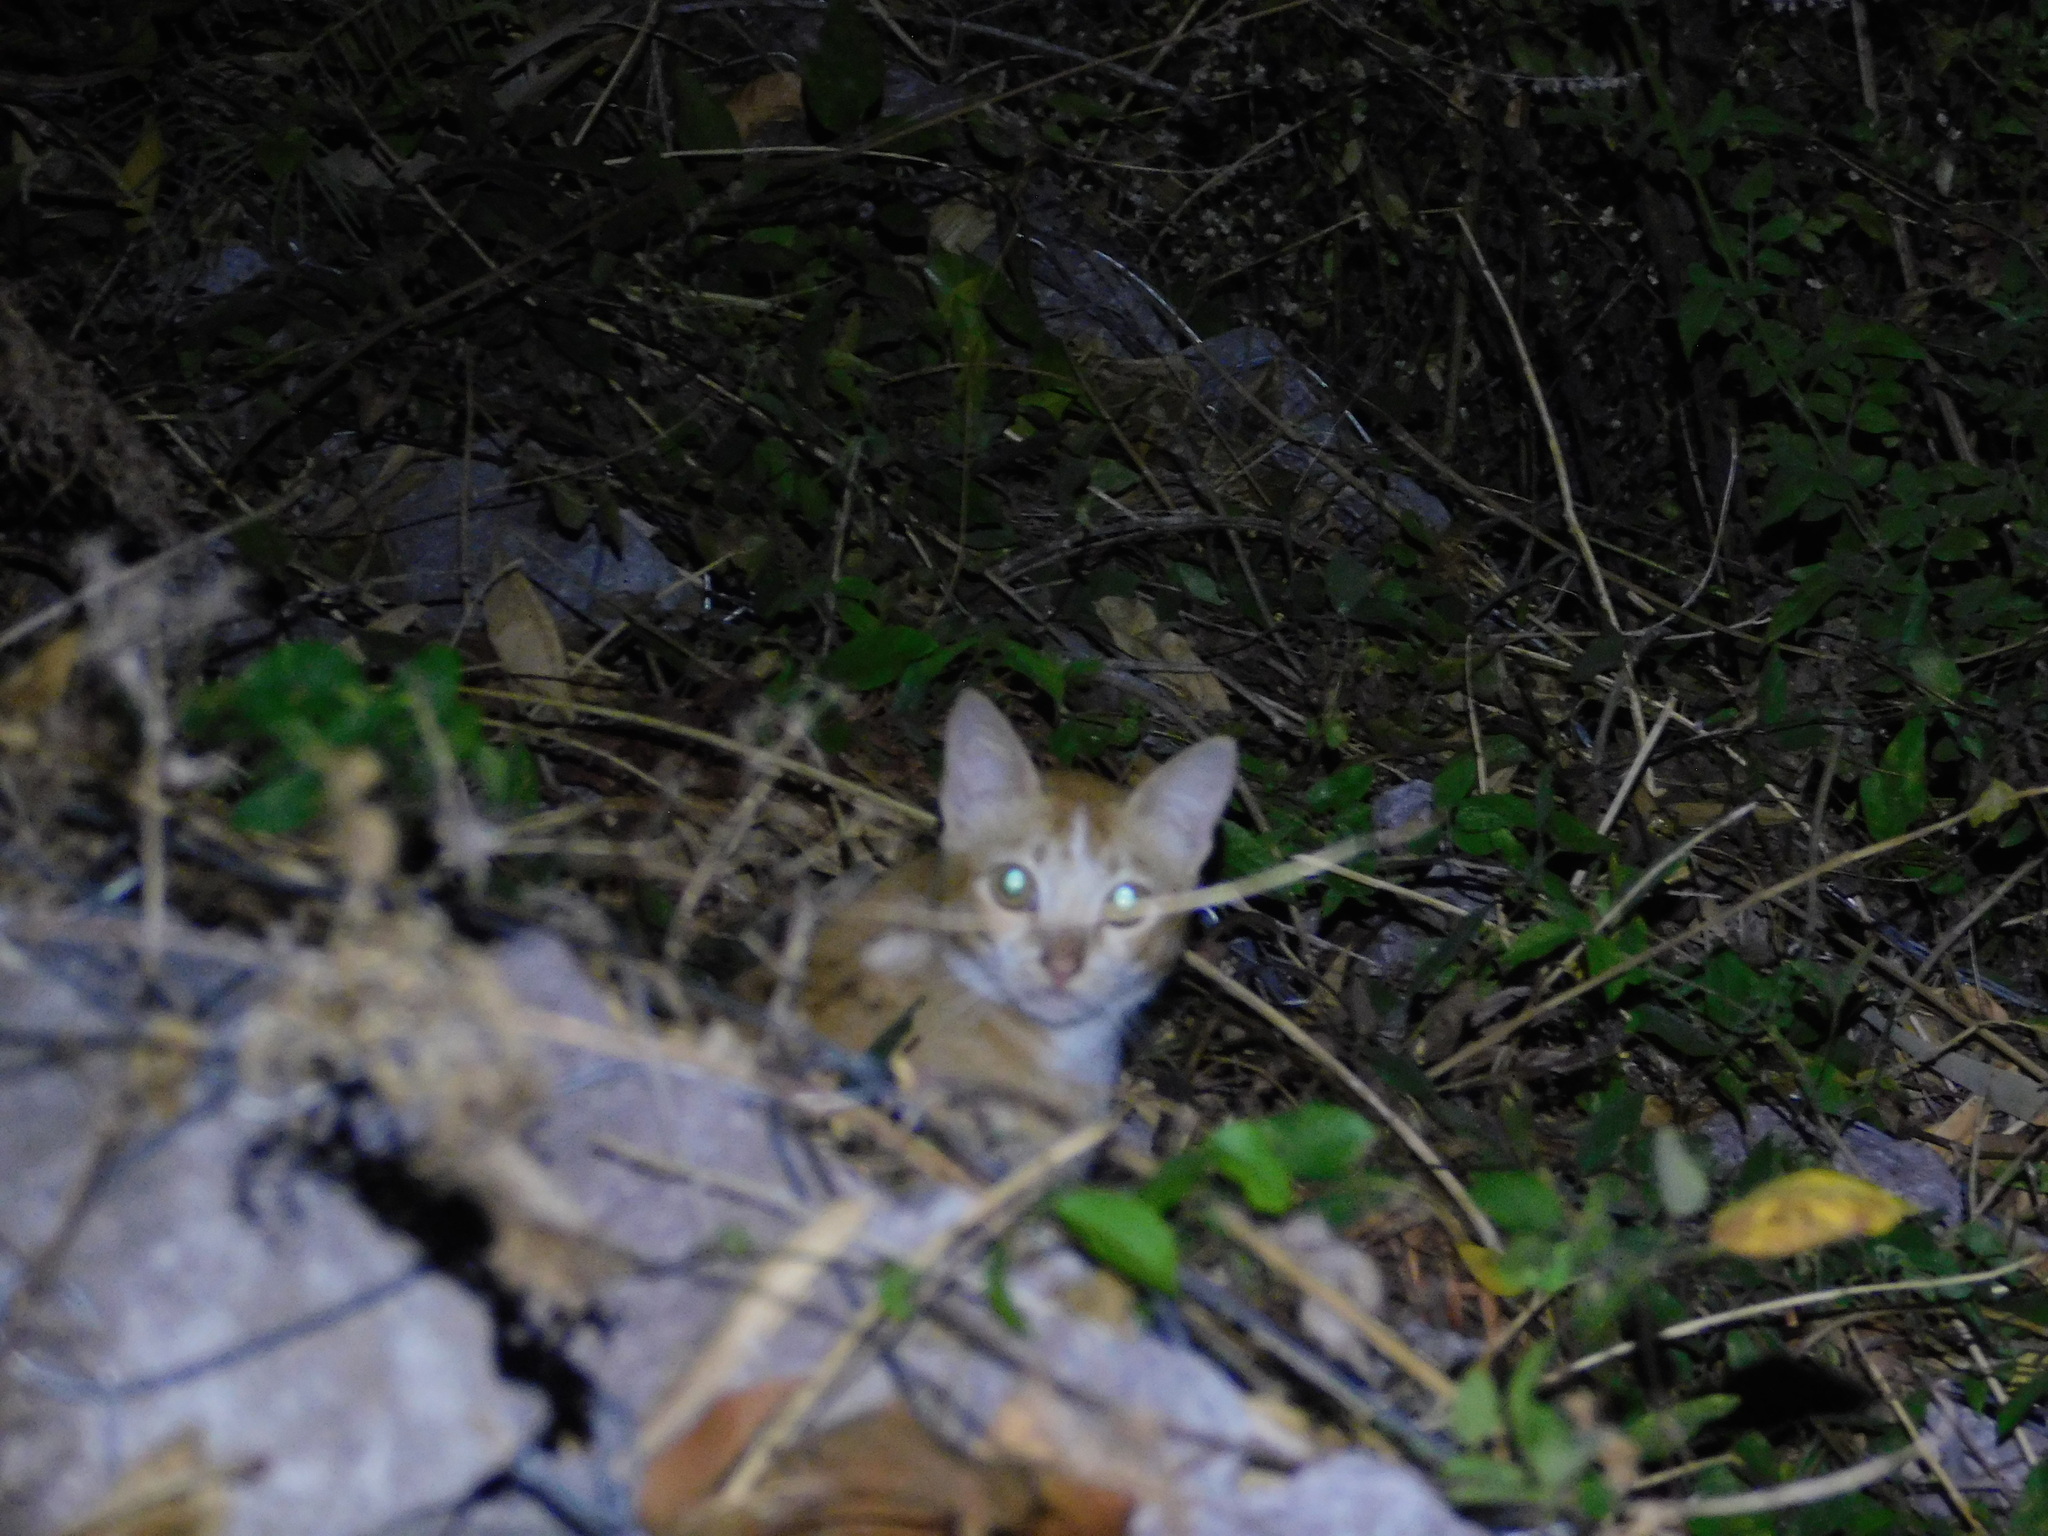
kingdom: Animalia
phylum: Chordata
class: Mammalia
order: Carnivora
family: Felidae
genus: Felis
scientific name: Felis catus
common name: Domestic cat
